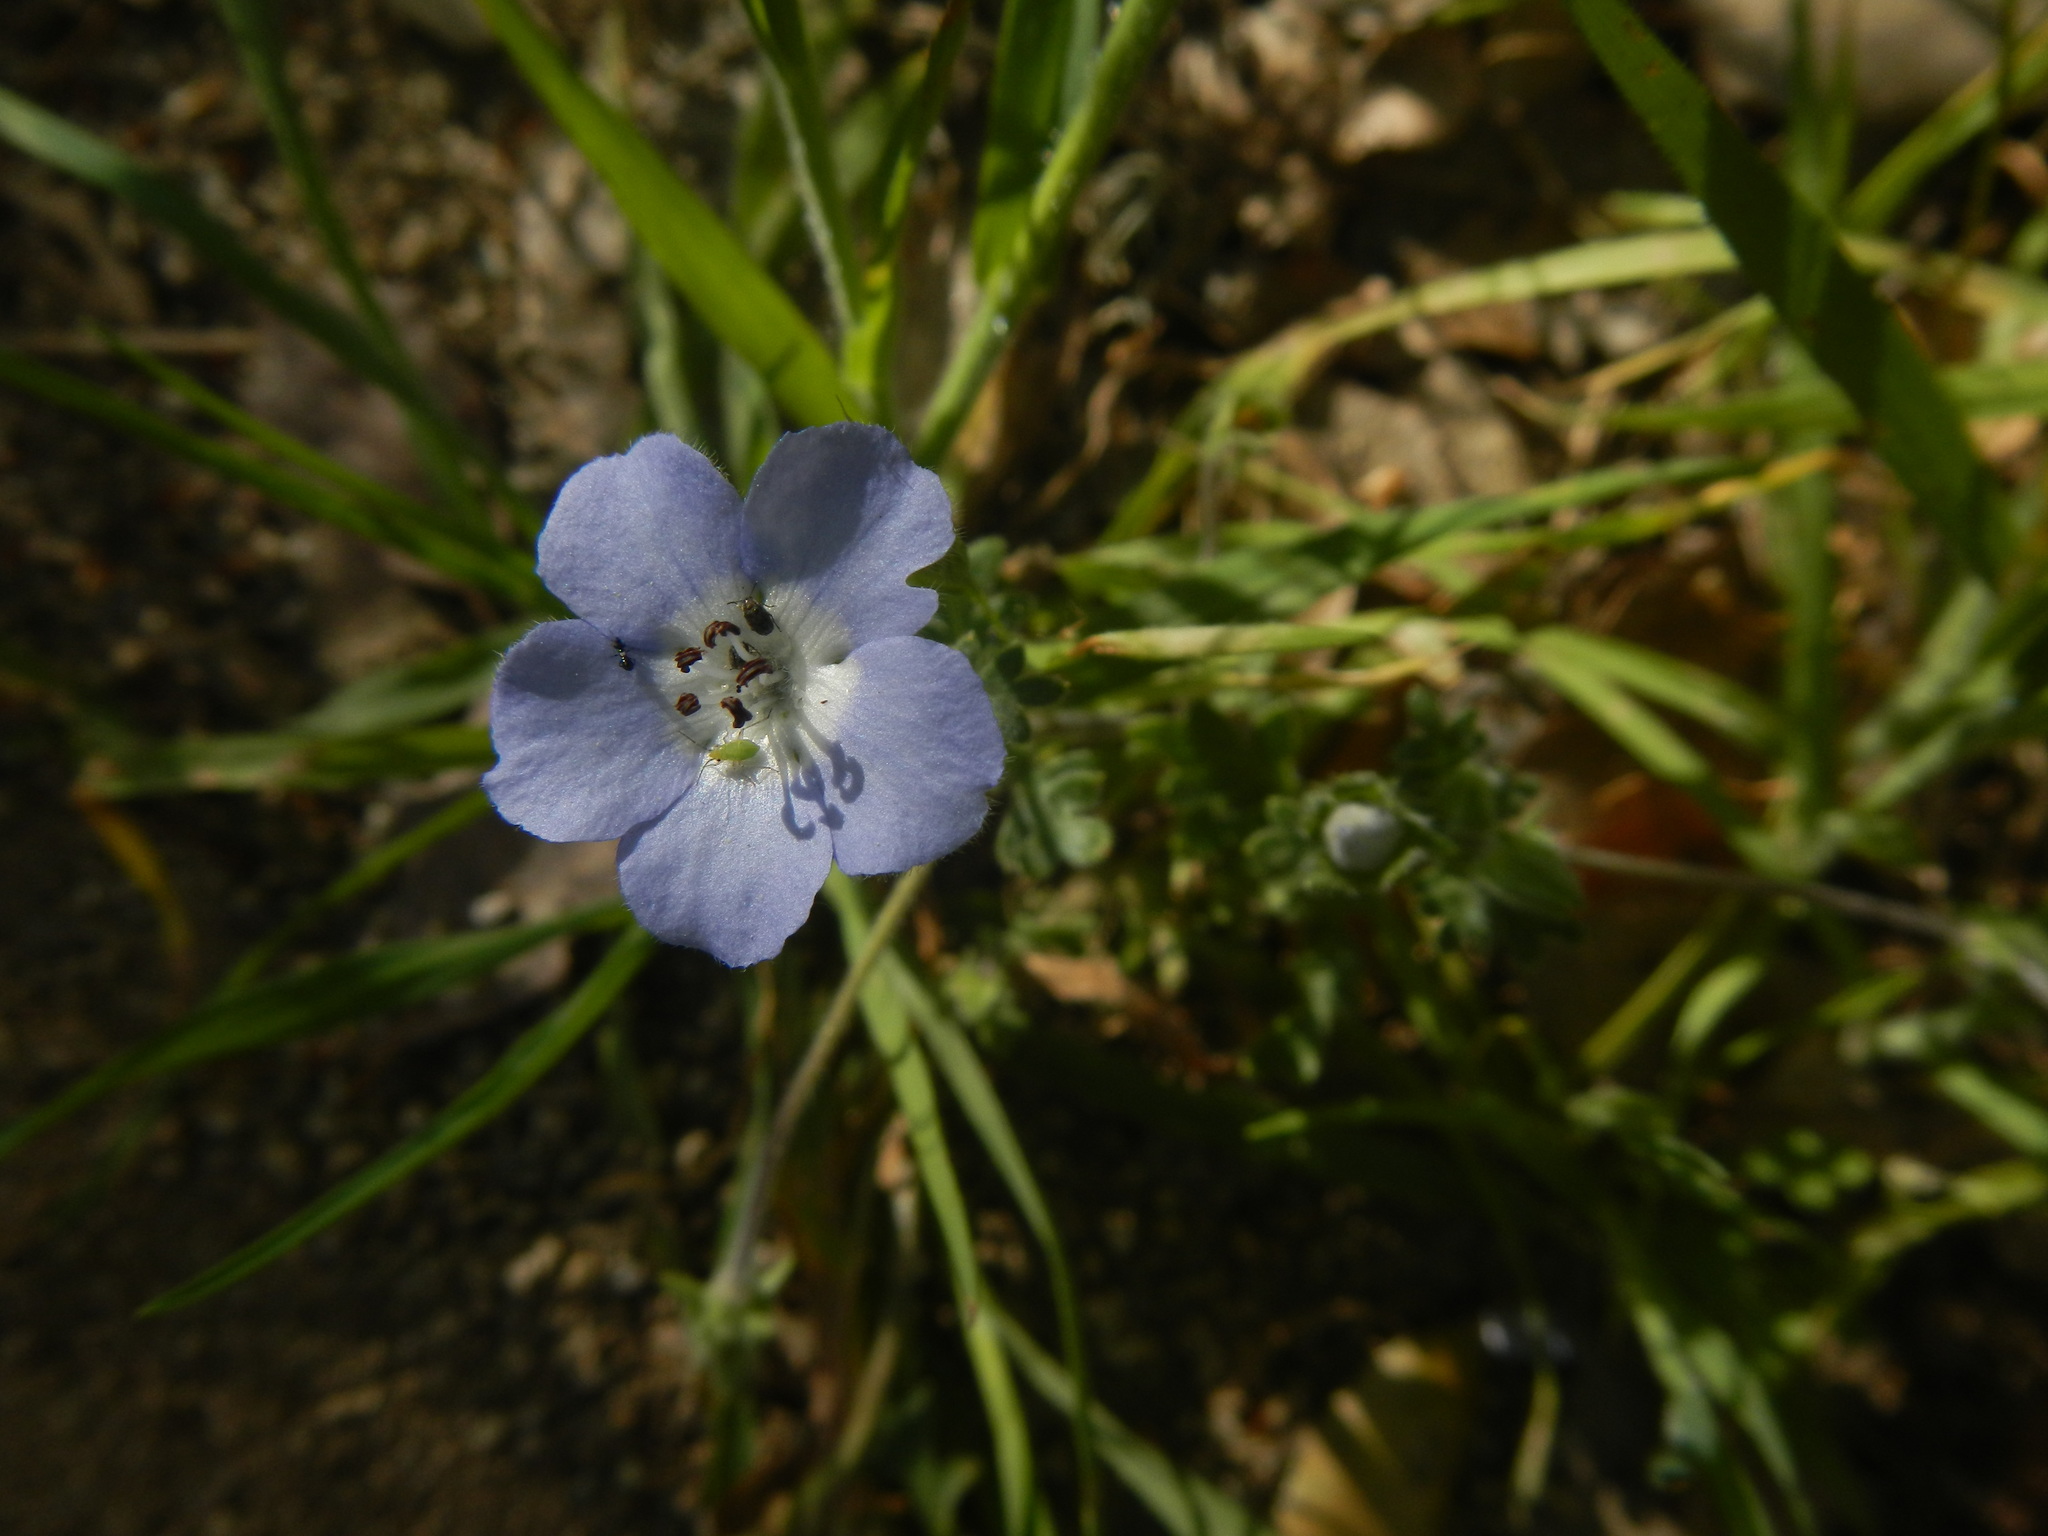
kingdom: Plantae
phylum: Tracheophyta
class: Magnoliopsida
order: Boraginales
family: Hydrophyllaceae
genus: Nemophila
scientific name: Nemophila menziesii
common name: Baby's-blue-eyes
